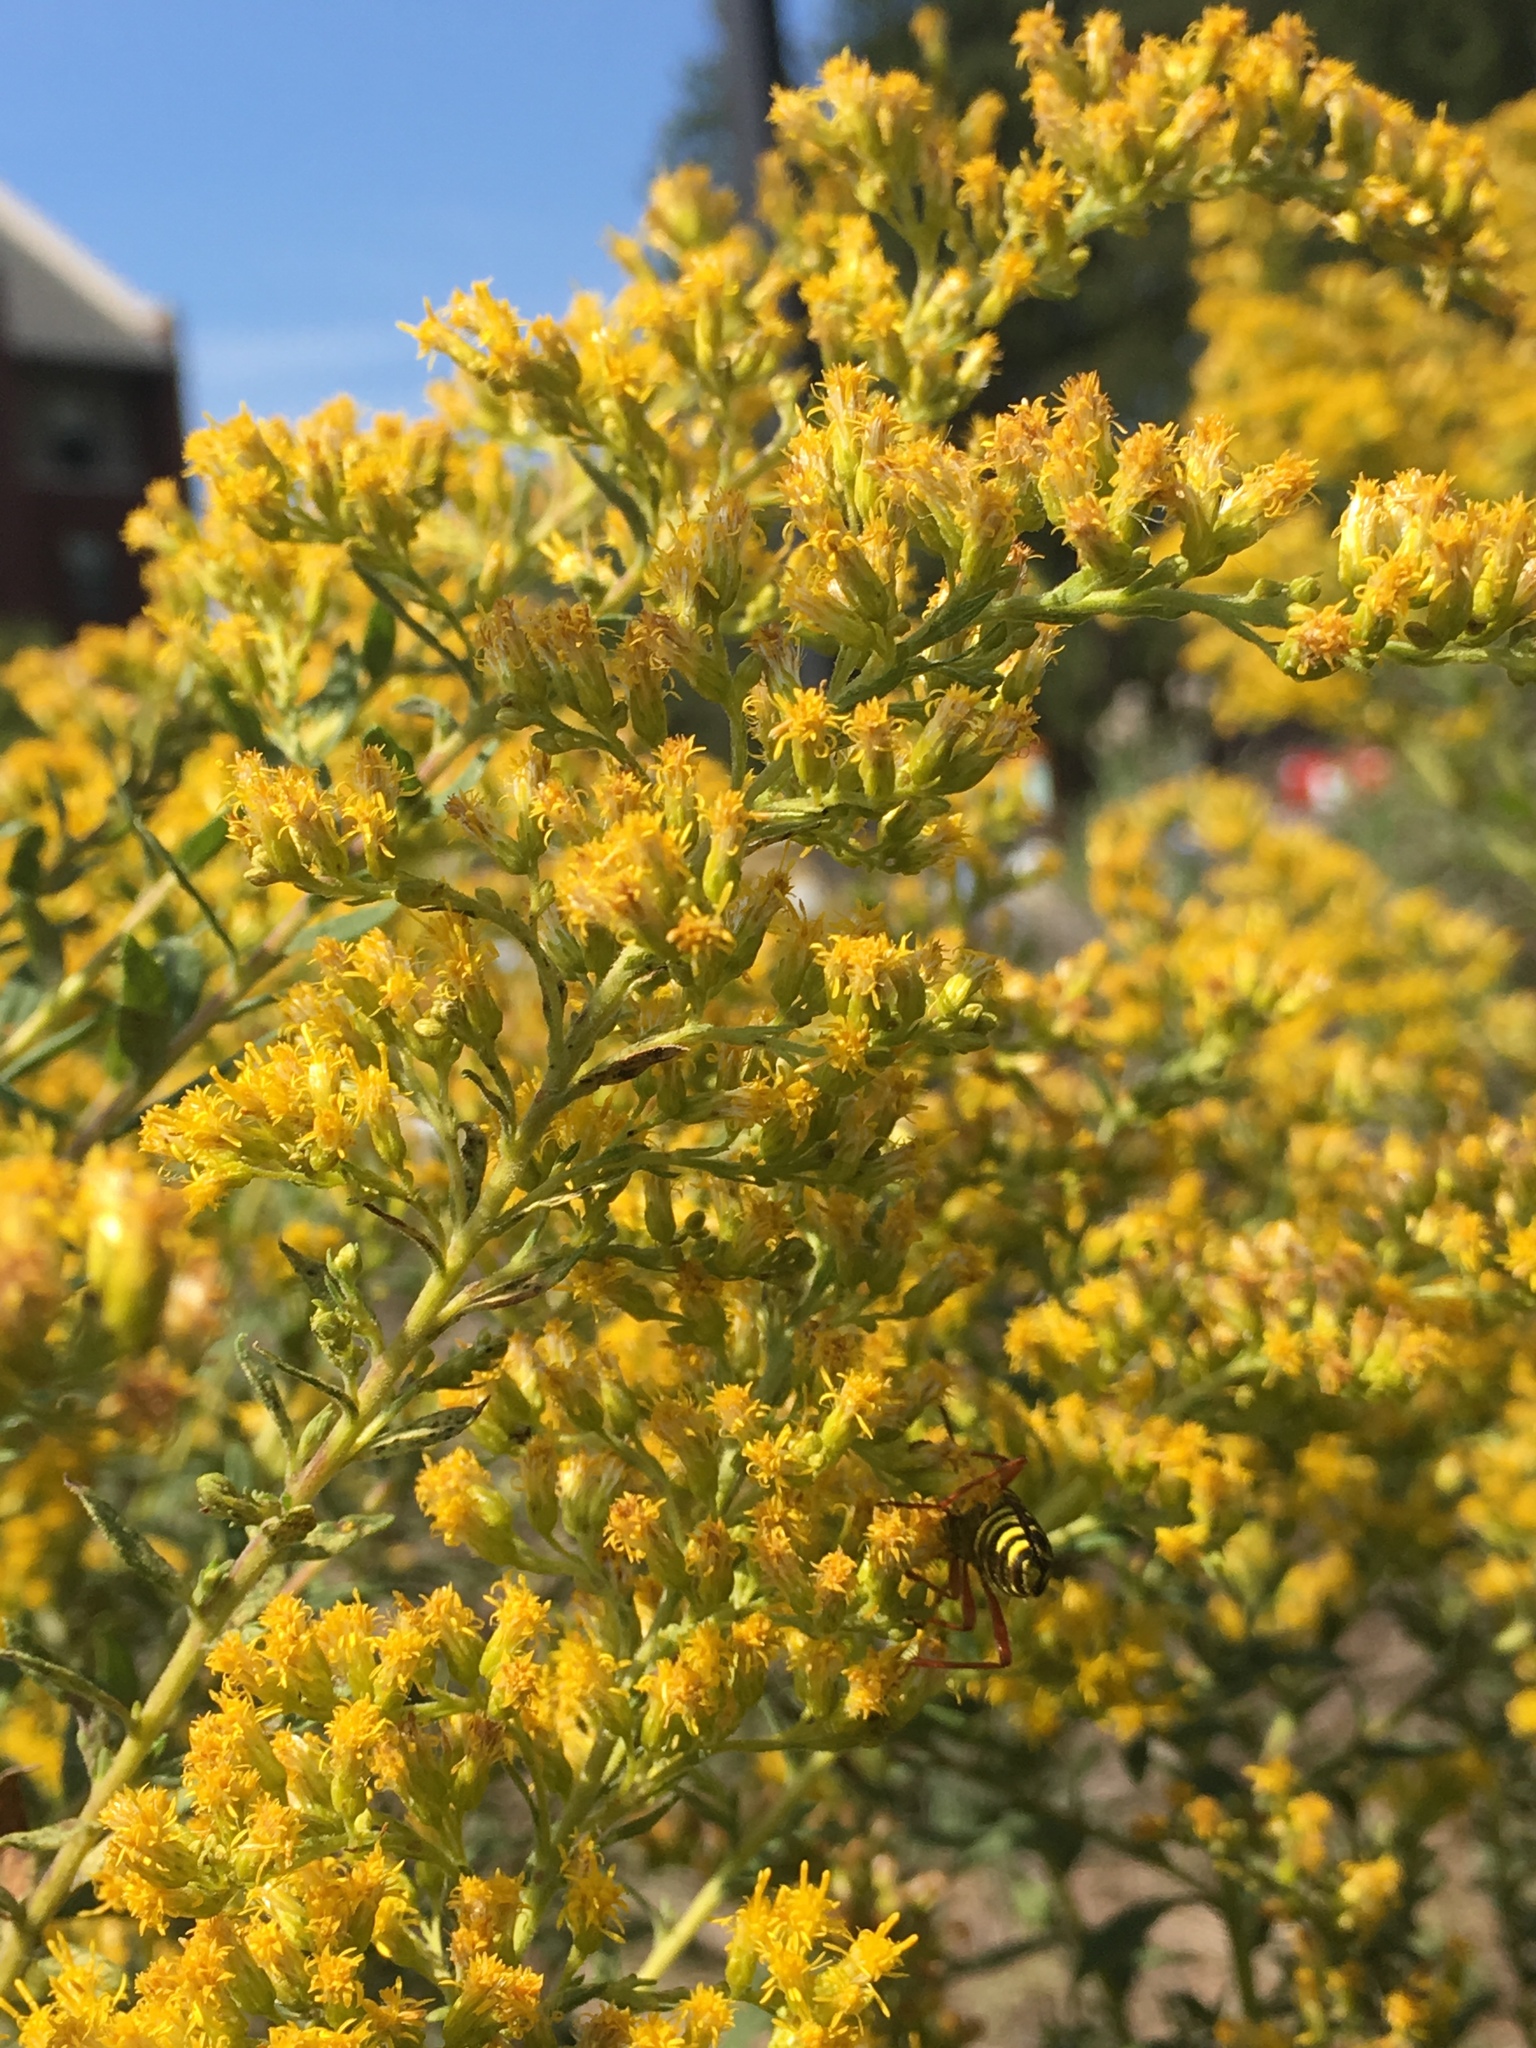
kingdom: Animalia
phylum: Arthropoda
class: Insecta
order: Coleoptera
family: Cerambycidae
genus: Megacyllene
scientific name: Megacyllene robiniae
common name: Locust borer
